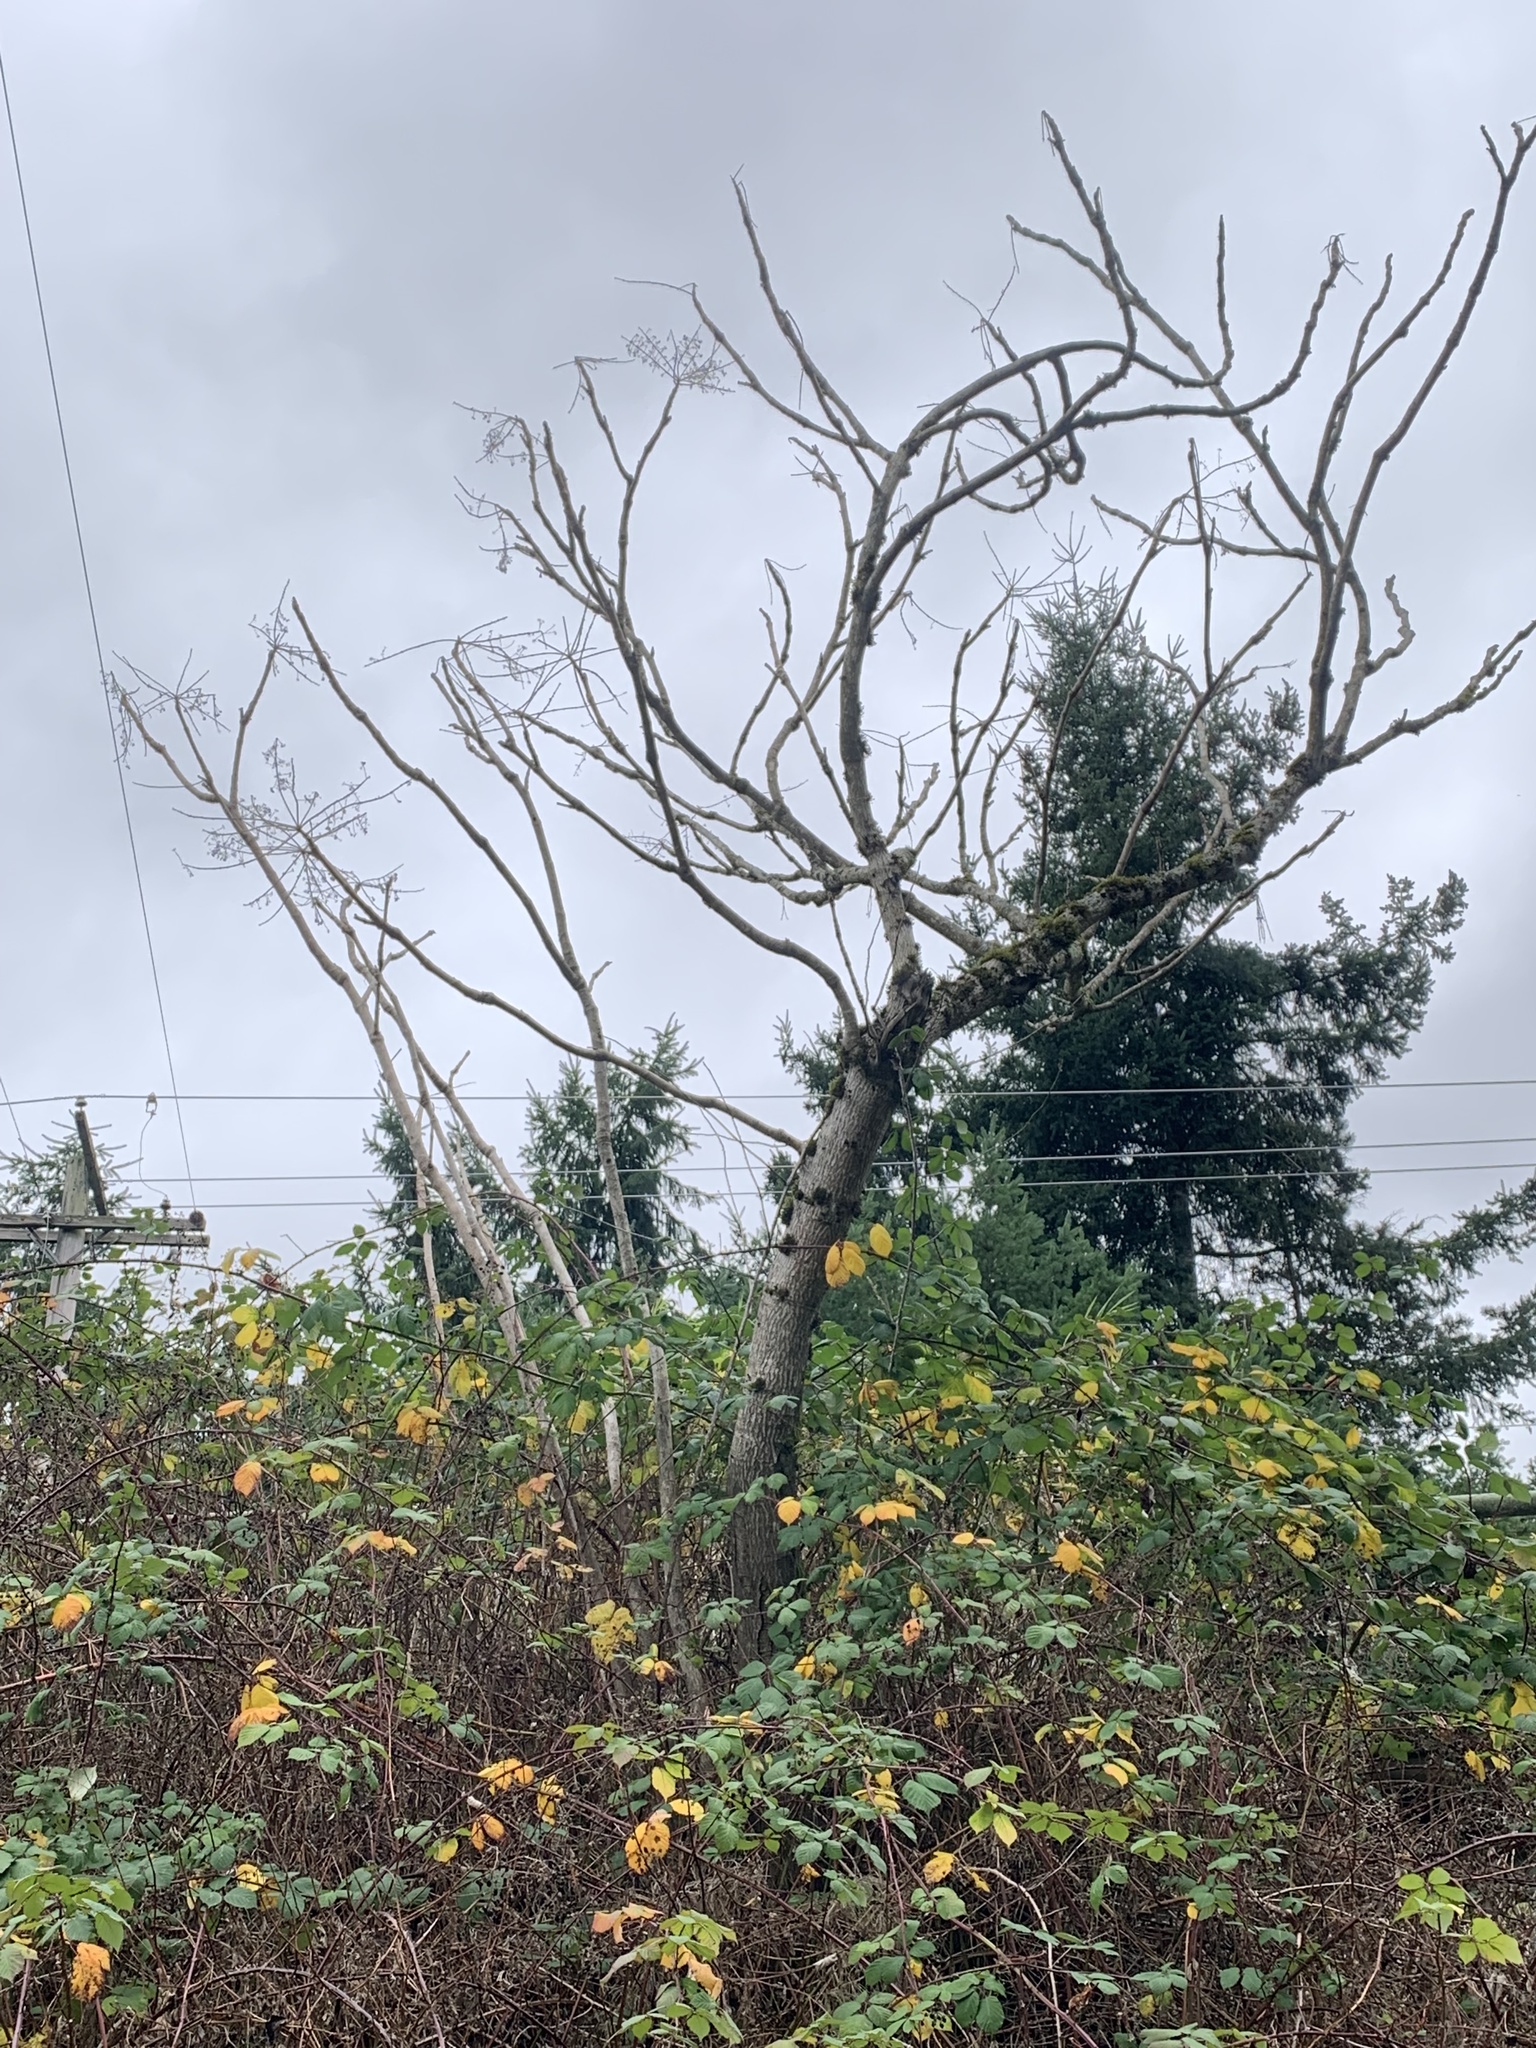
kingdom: Plantae
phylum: Tracheophyta
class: Magnoliopsida
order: Apiales
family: Araliaceae
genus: Aralia
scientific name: Aralia elata
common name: Japanese angelica-tree
